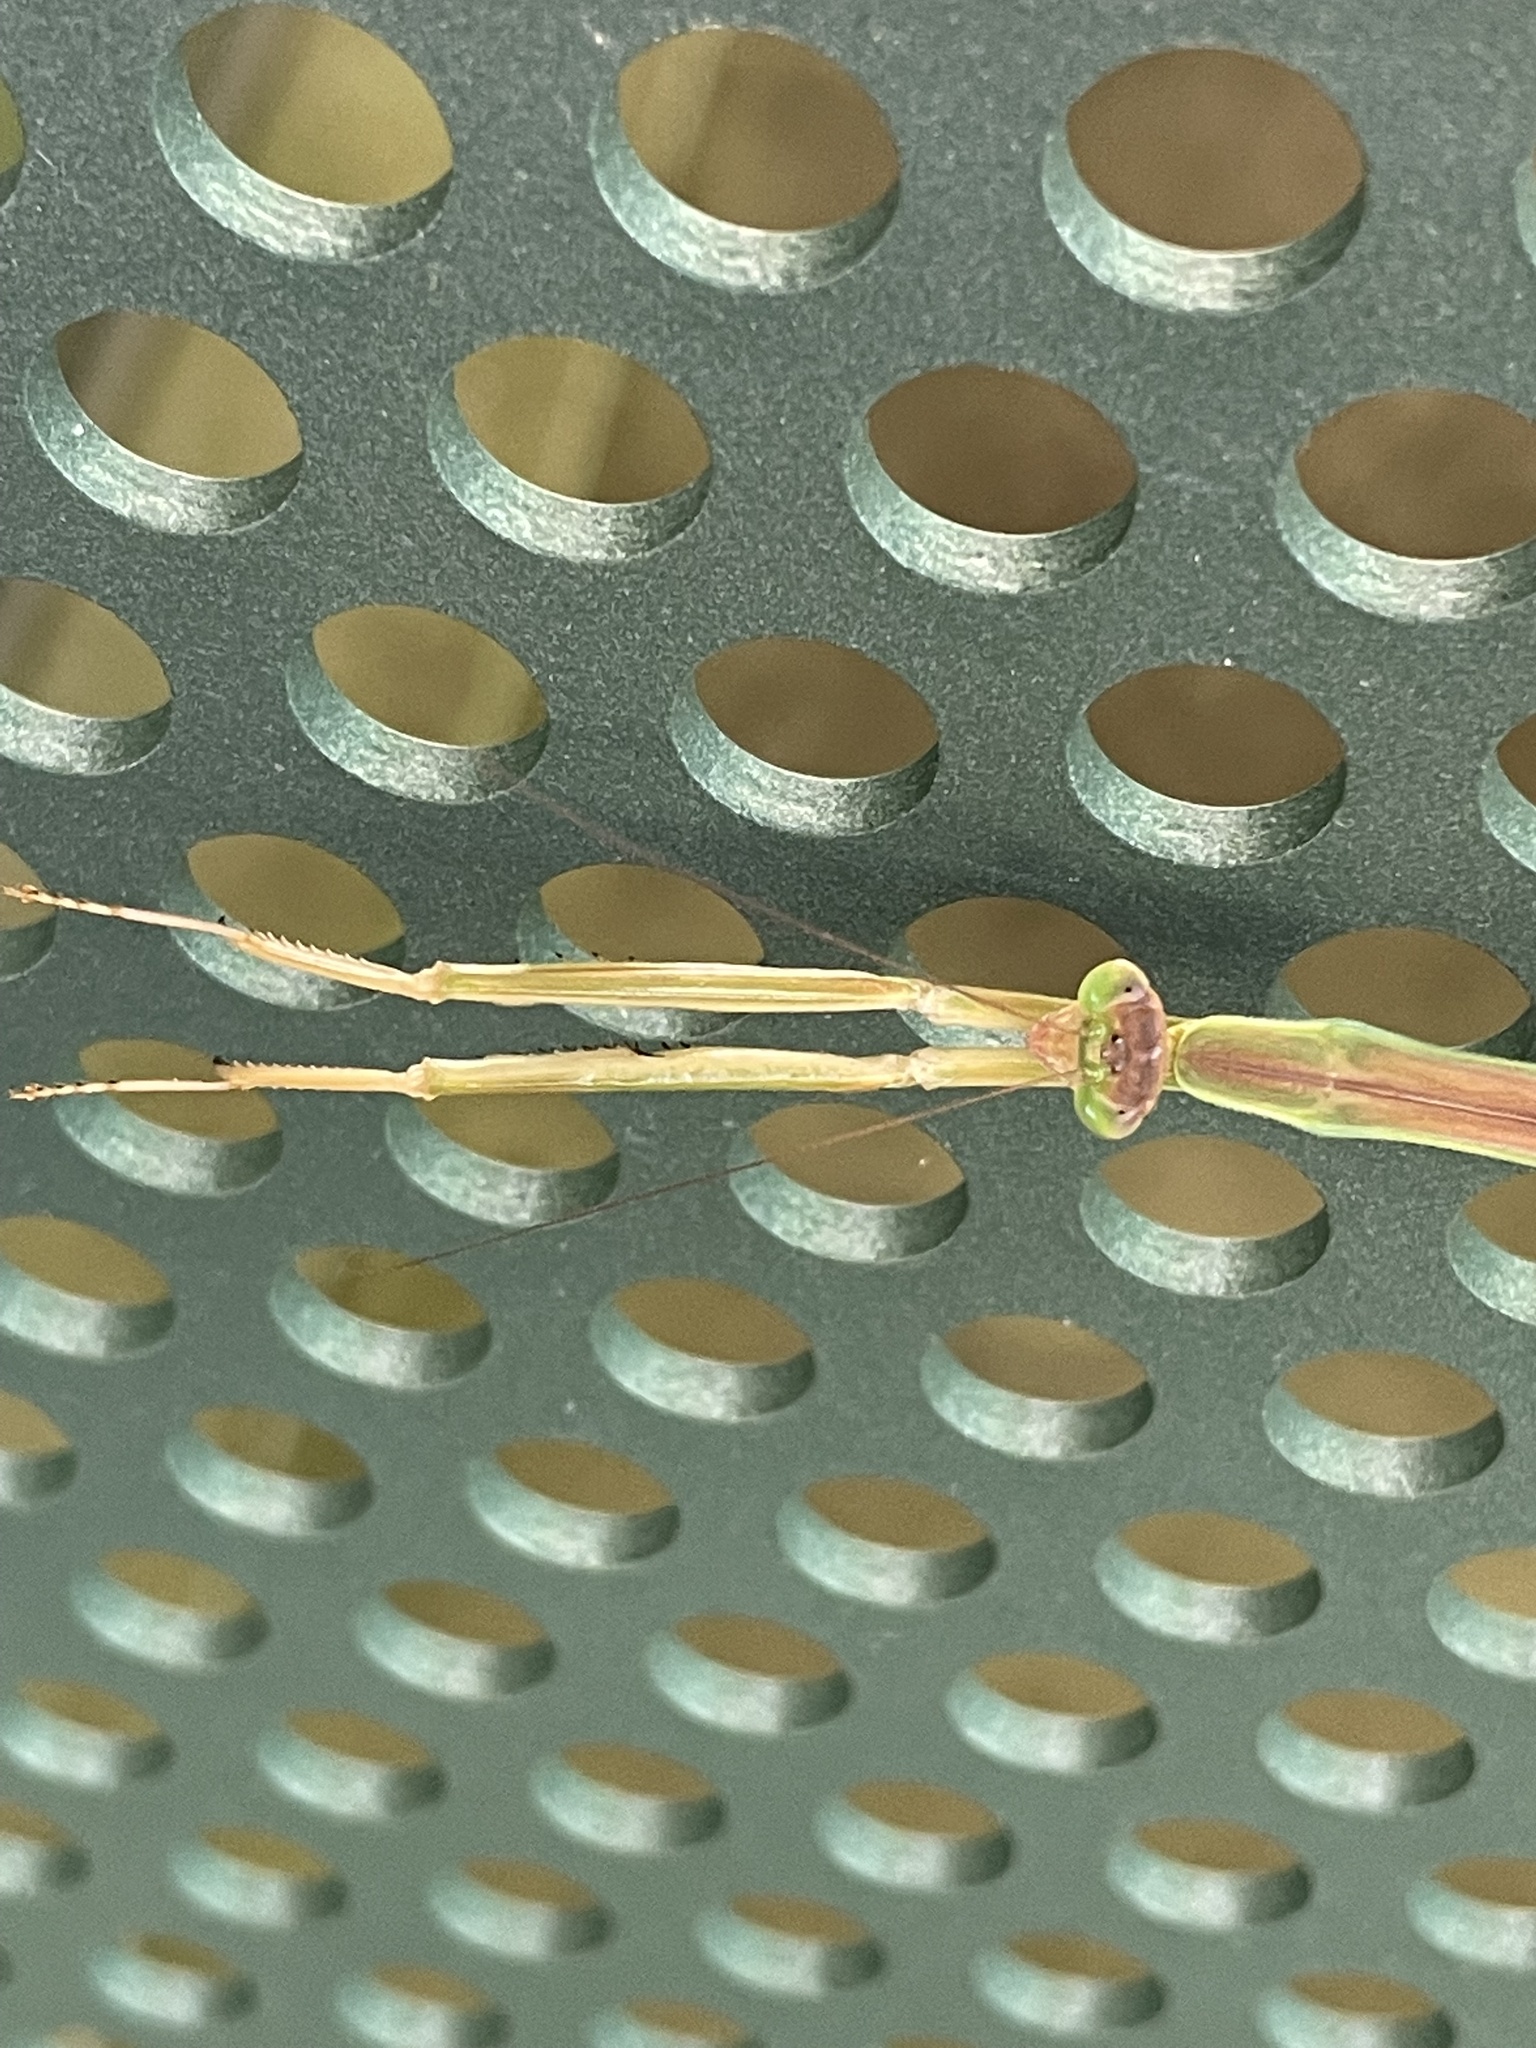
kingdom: Animalia
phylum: Arthropoda
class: Insecta
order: Mantodea
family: Mantidae
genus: Tenodera
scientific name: Tenodera
